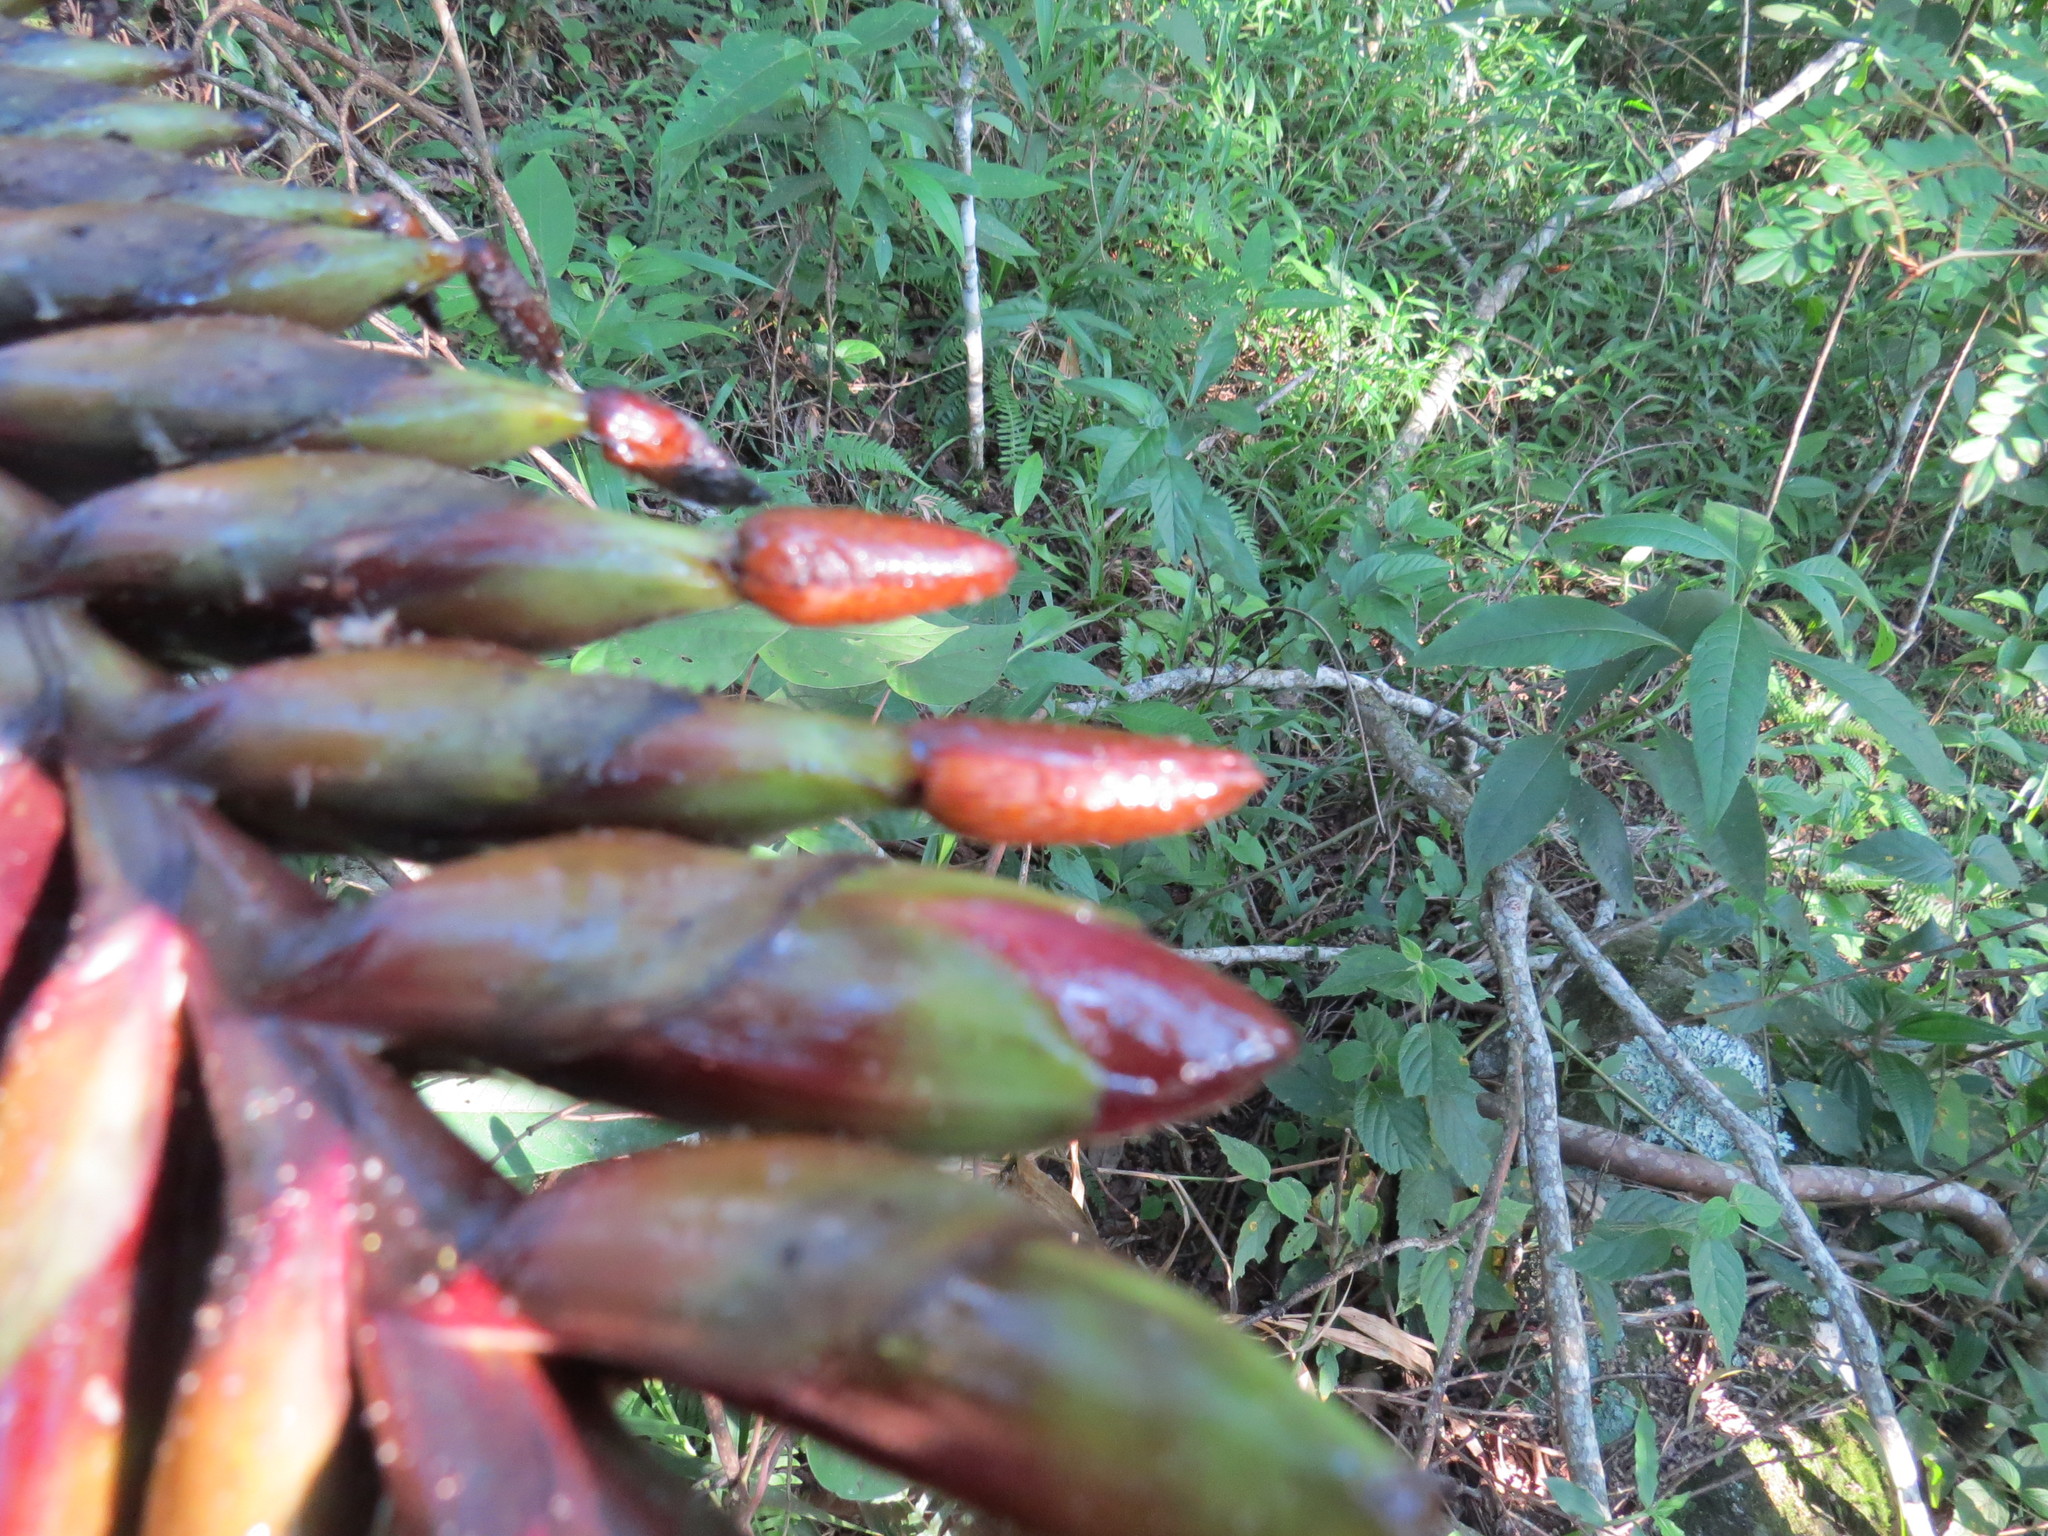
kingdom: Plantae
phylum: Tracheophyta
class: Liliopsida
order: Poales
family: Bromeliaceae
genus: Vriesea
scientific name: Vriesea bituminosa
